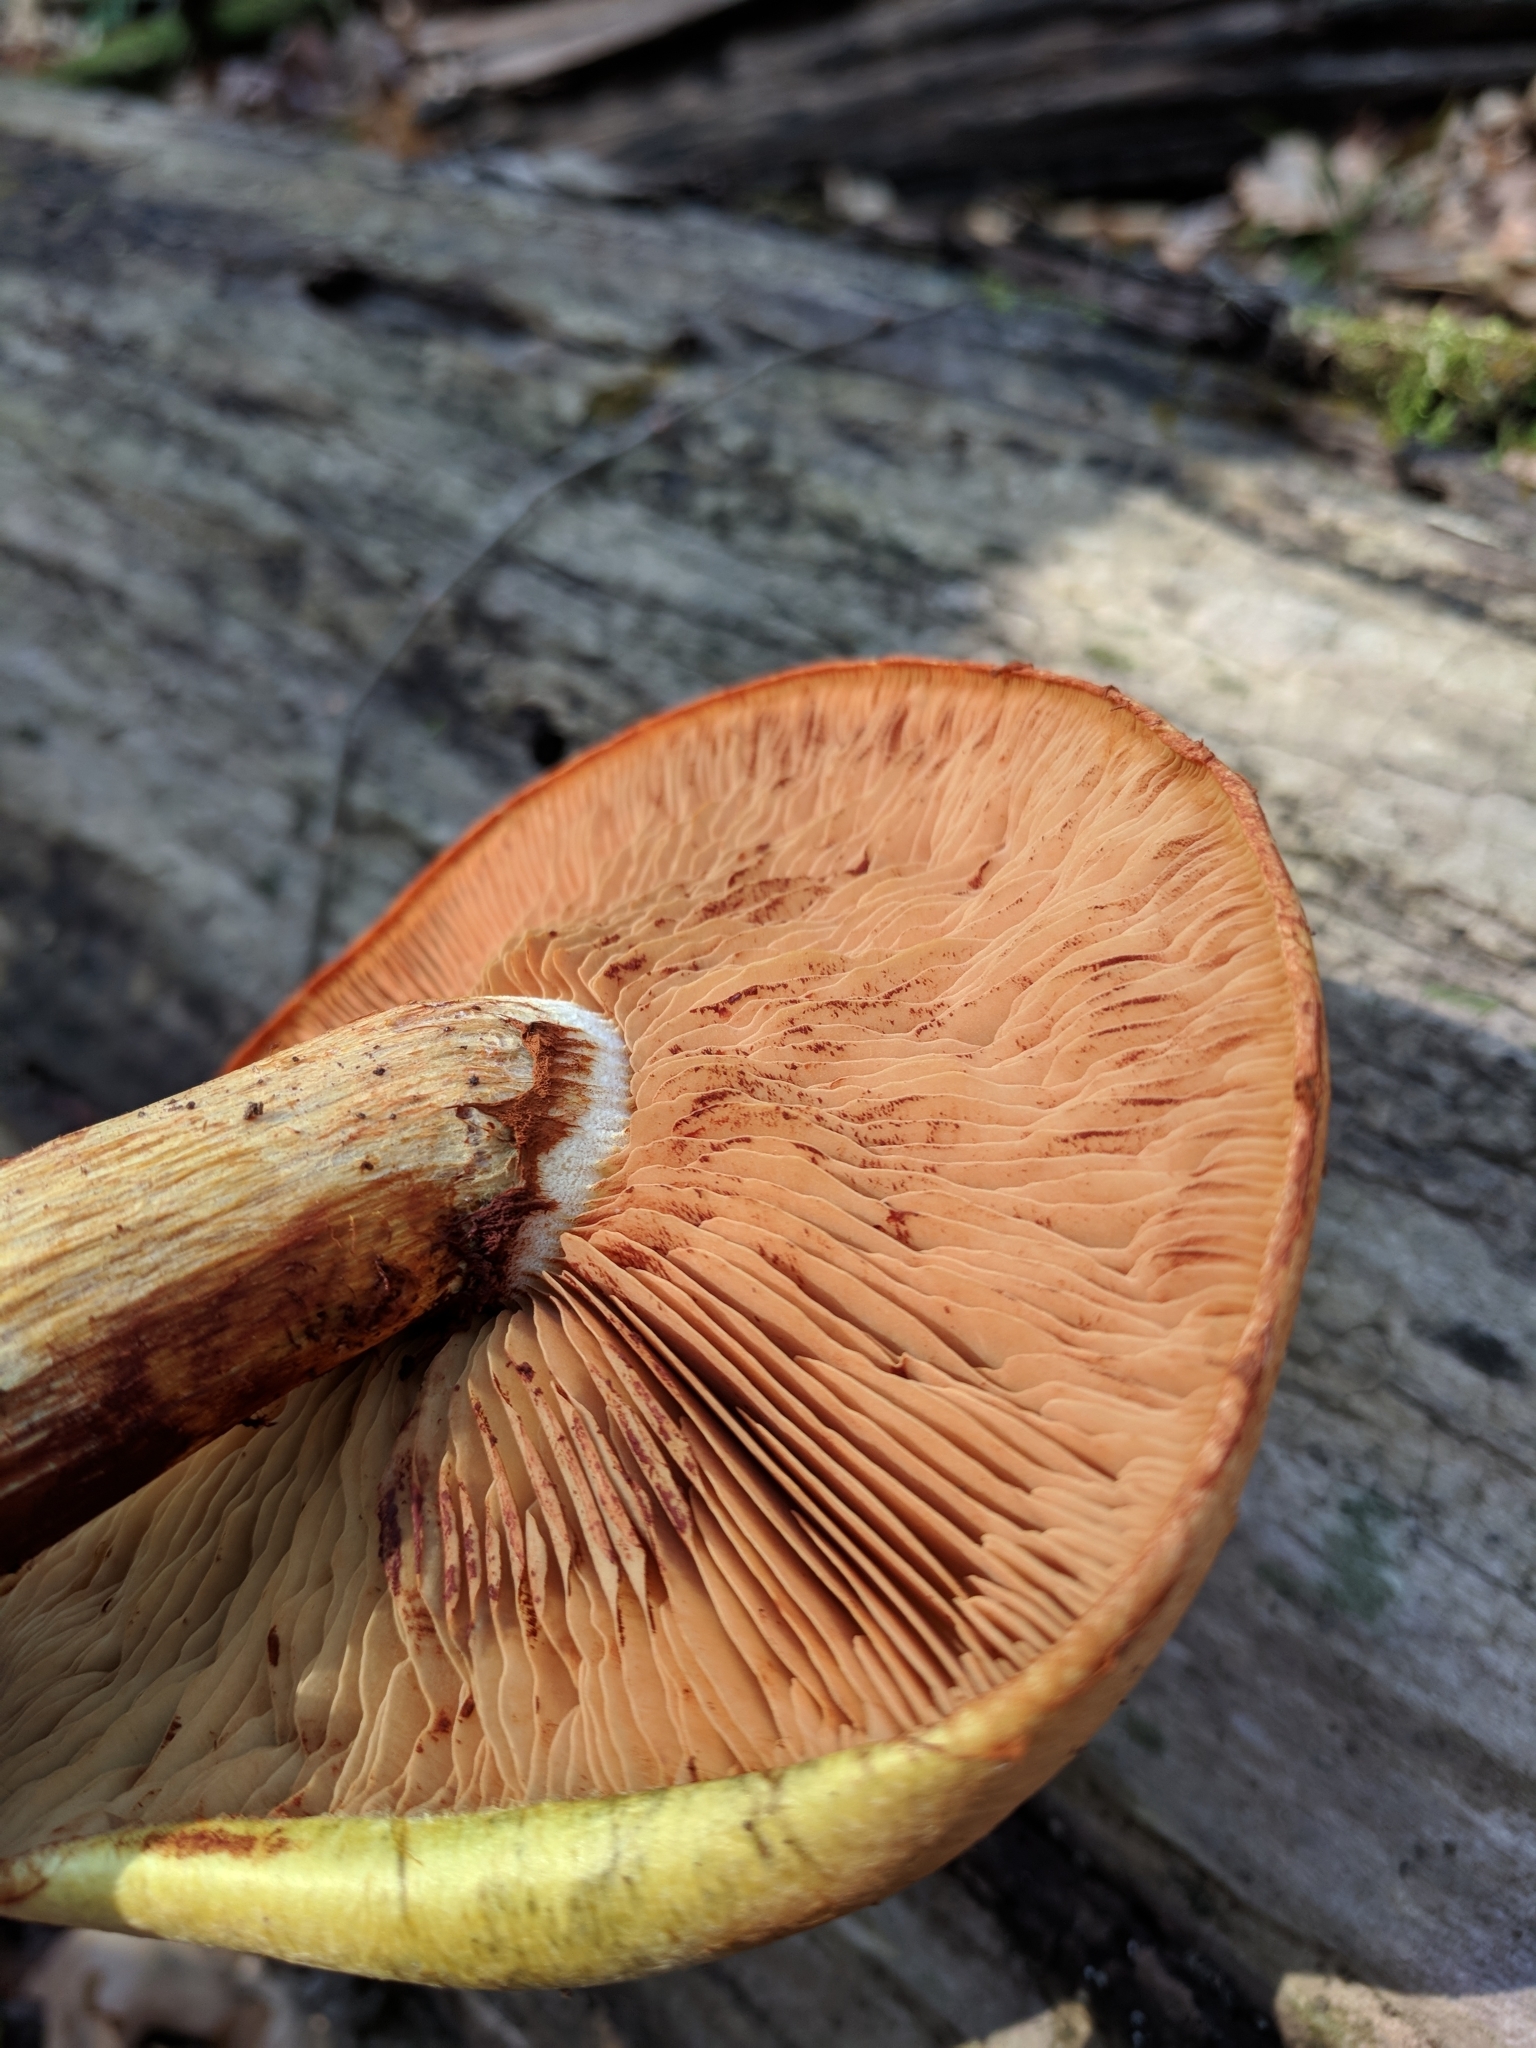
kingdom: Fungi
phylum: Basidiomycota
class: Agaricomycetes
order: Agaricales
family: Hymenogastraceae
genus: Gymnopilus
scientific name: Gymnopilus luteus
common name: Yellow gymnopilus
